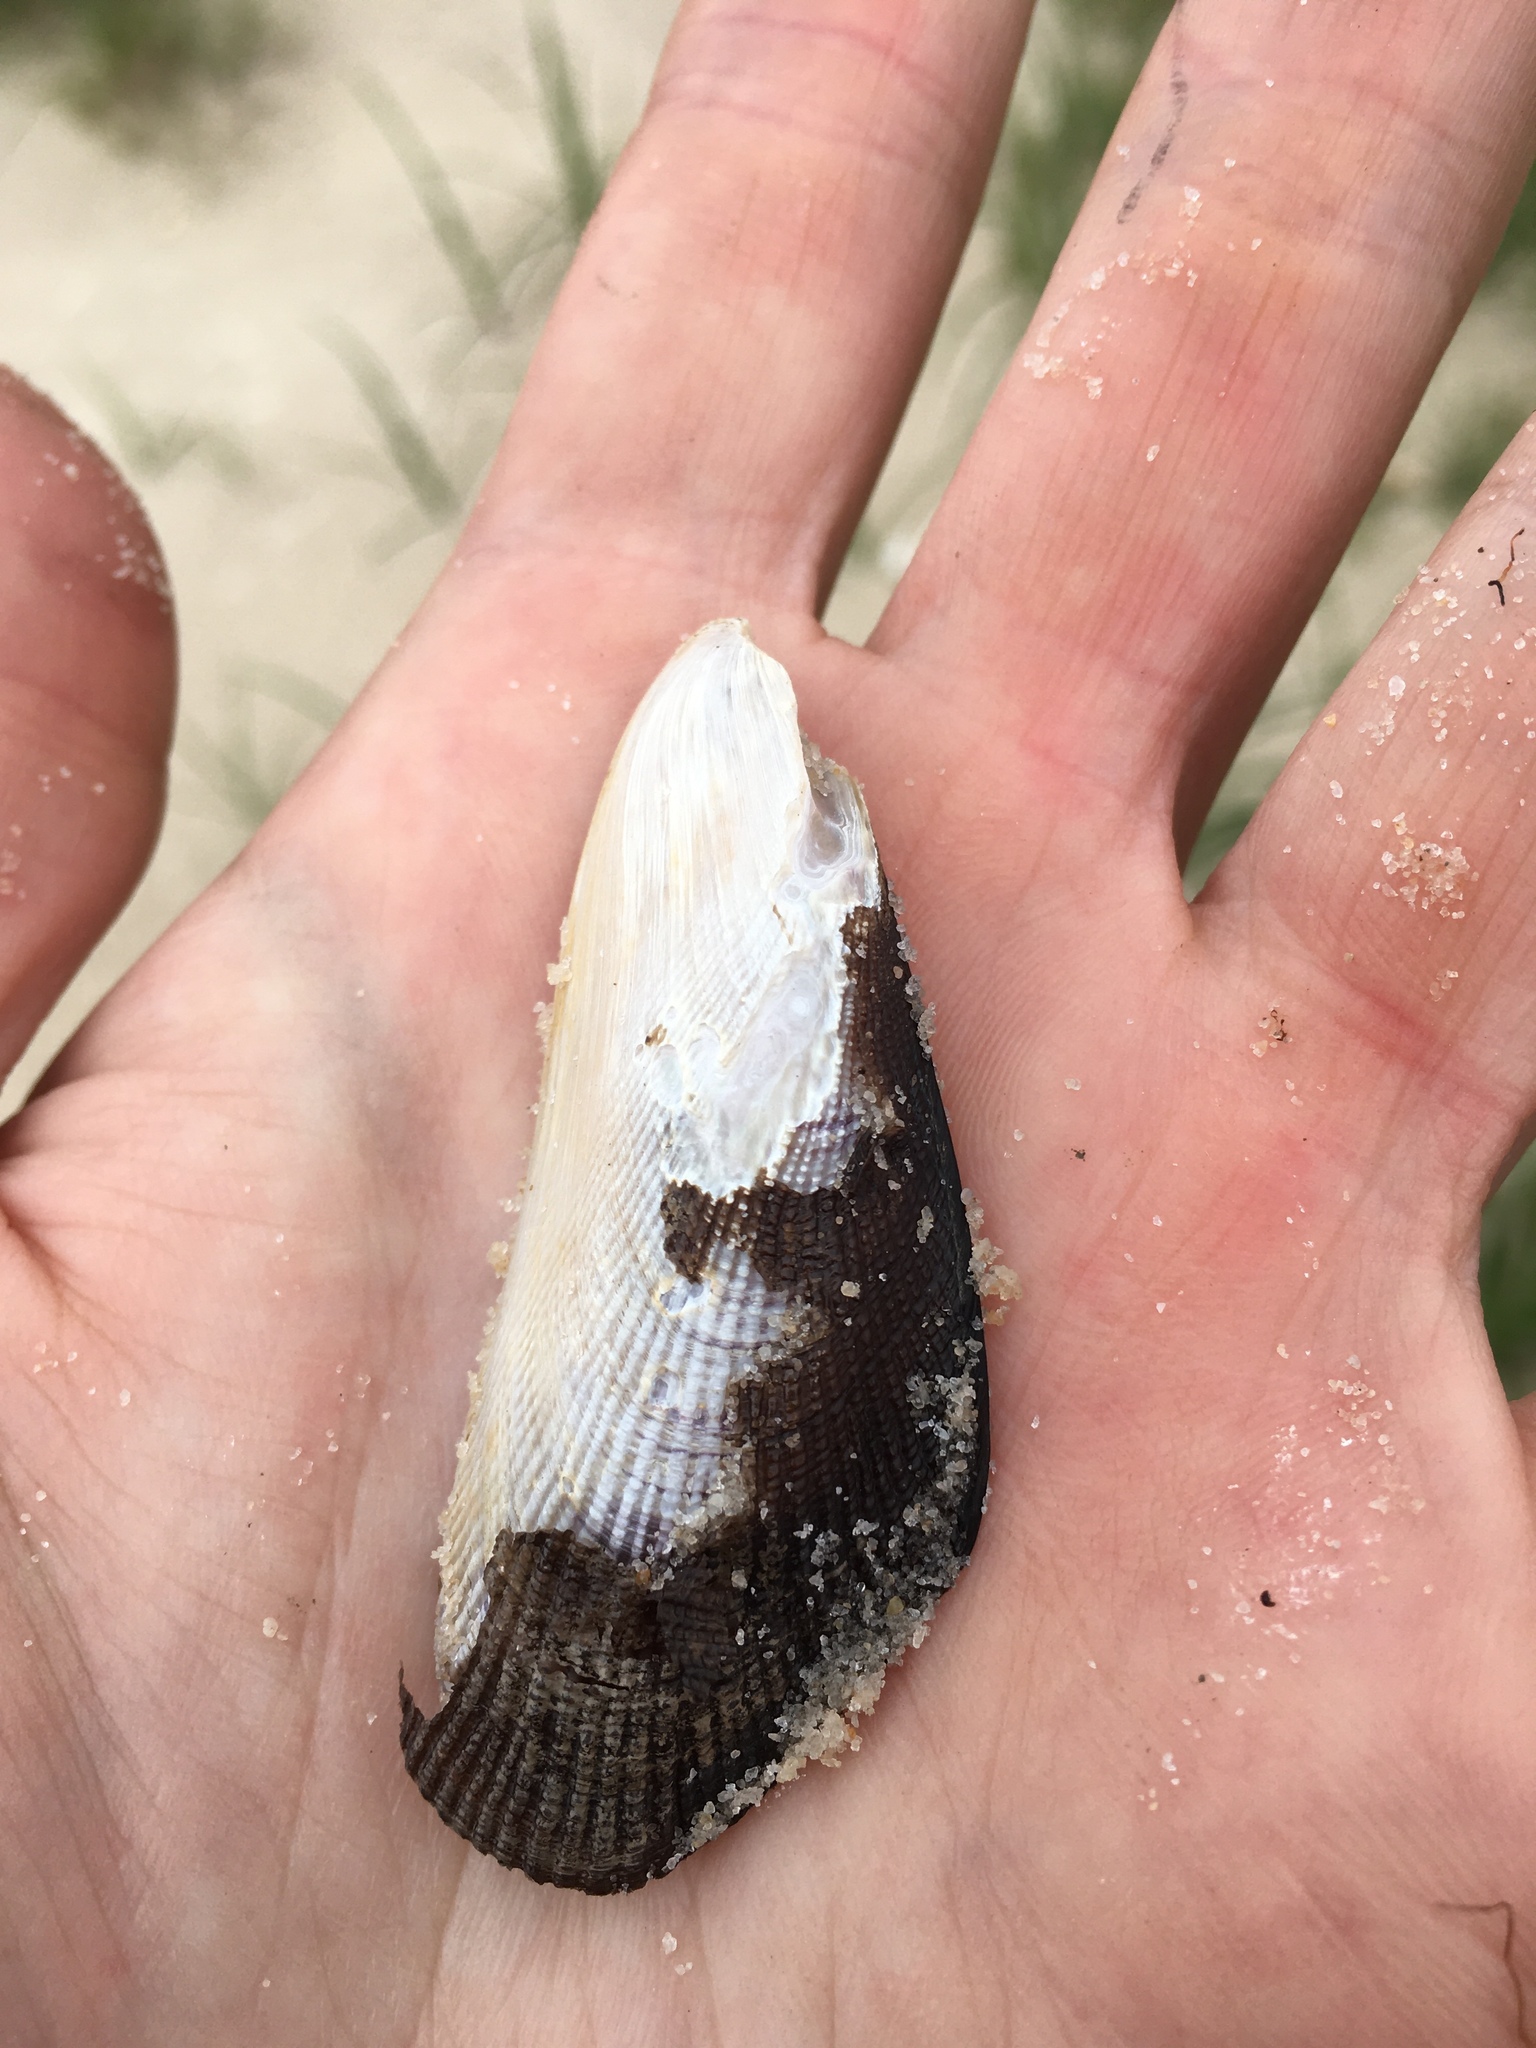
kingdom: Animalia
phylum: Mollusca
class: Bivalvia
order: Mytilida
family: Mytilidae
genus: Geukensia
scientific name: Geukensia granosissima
